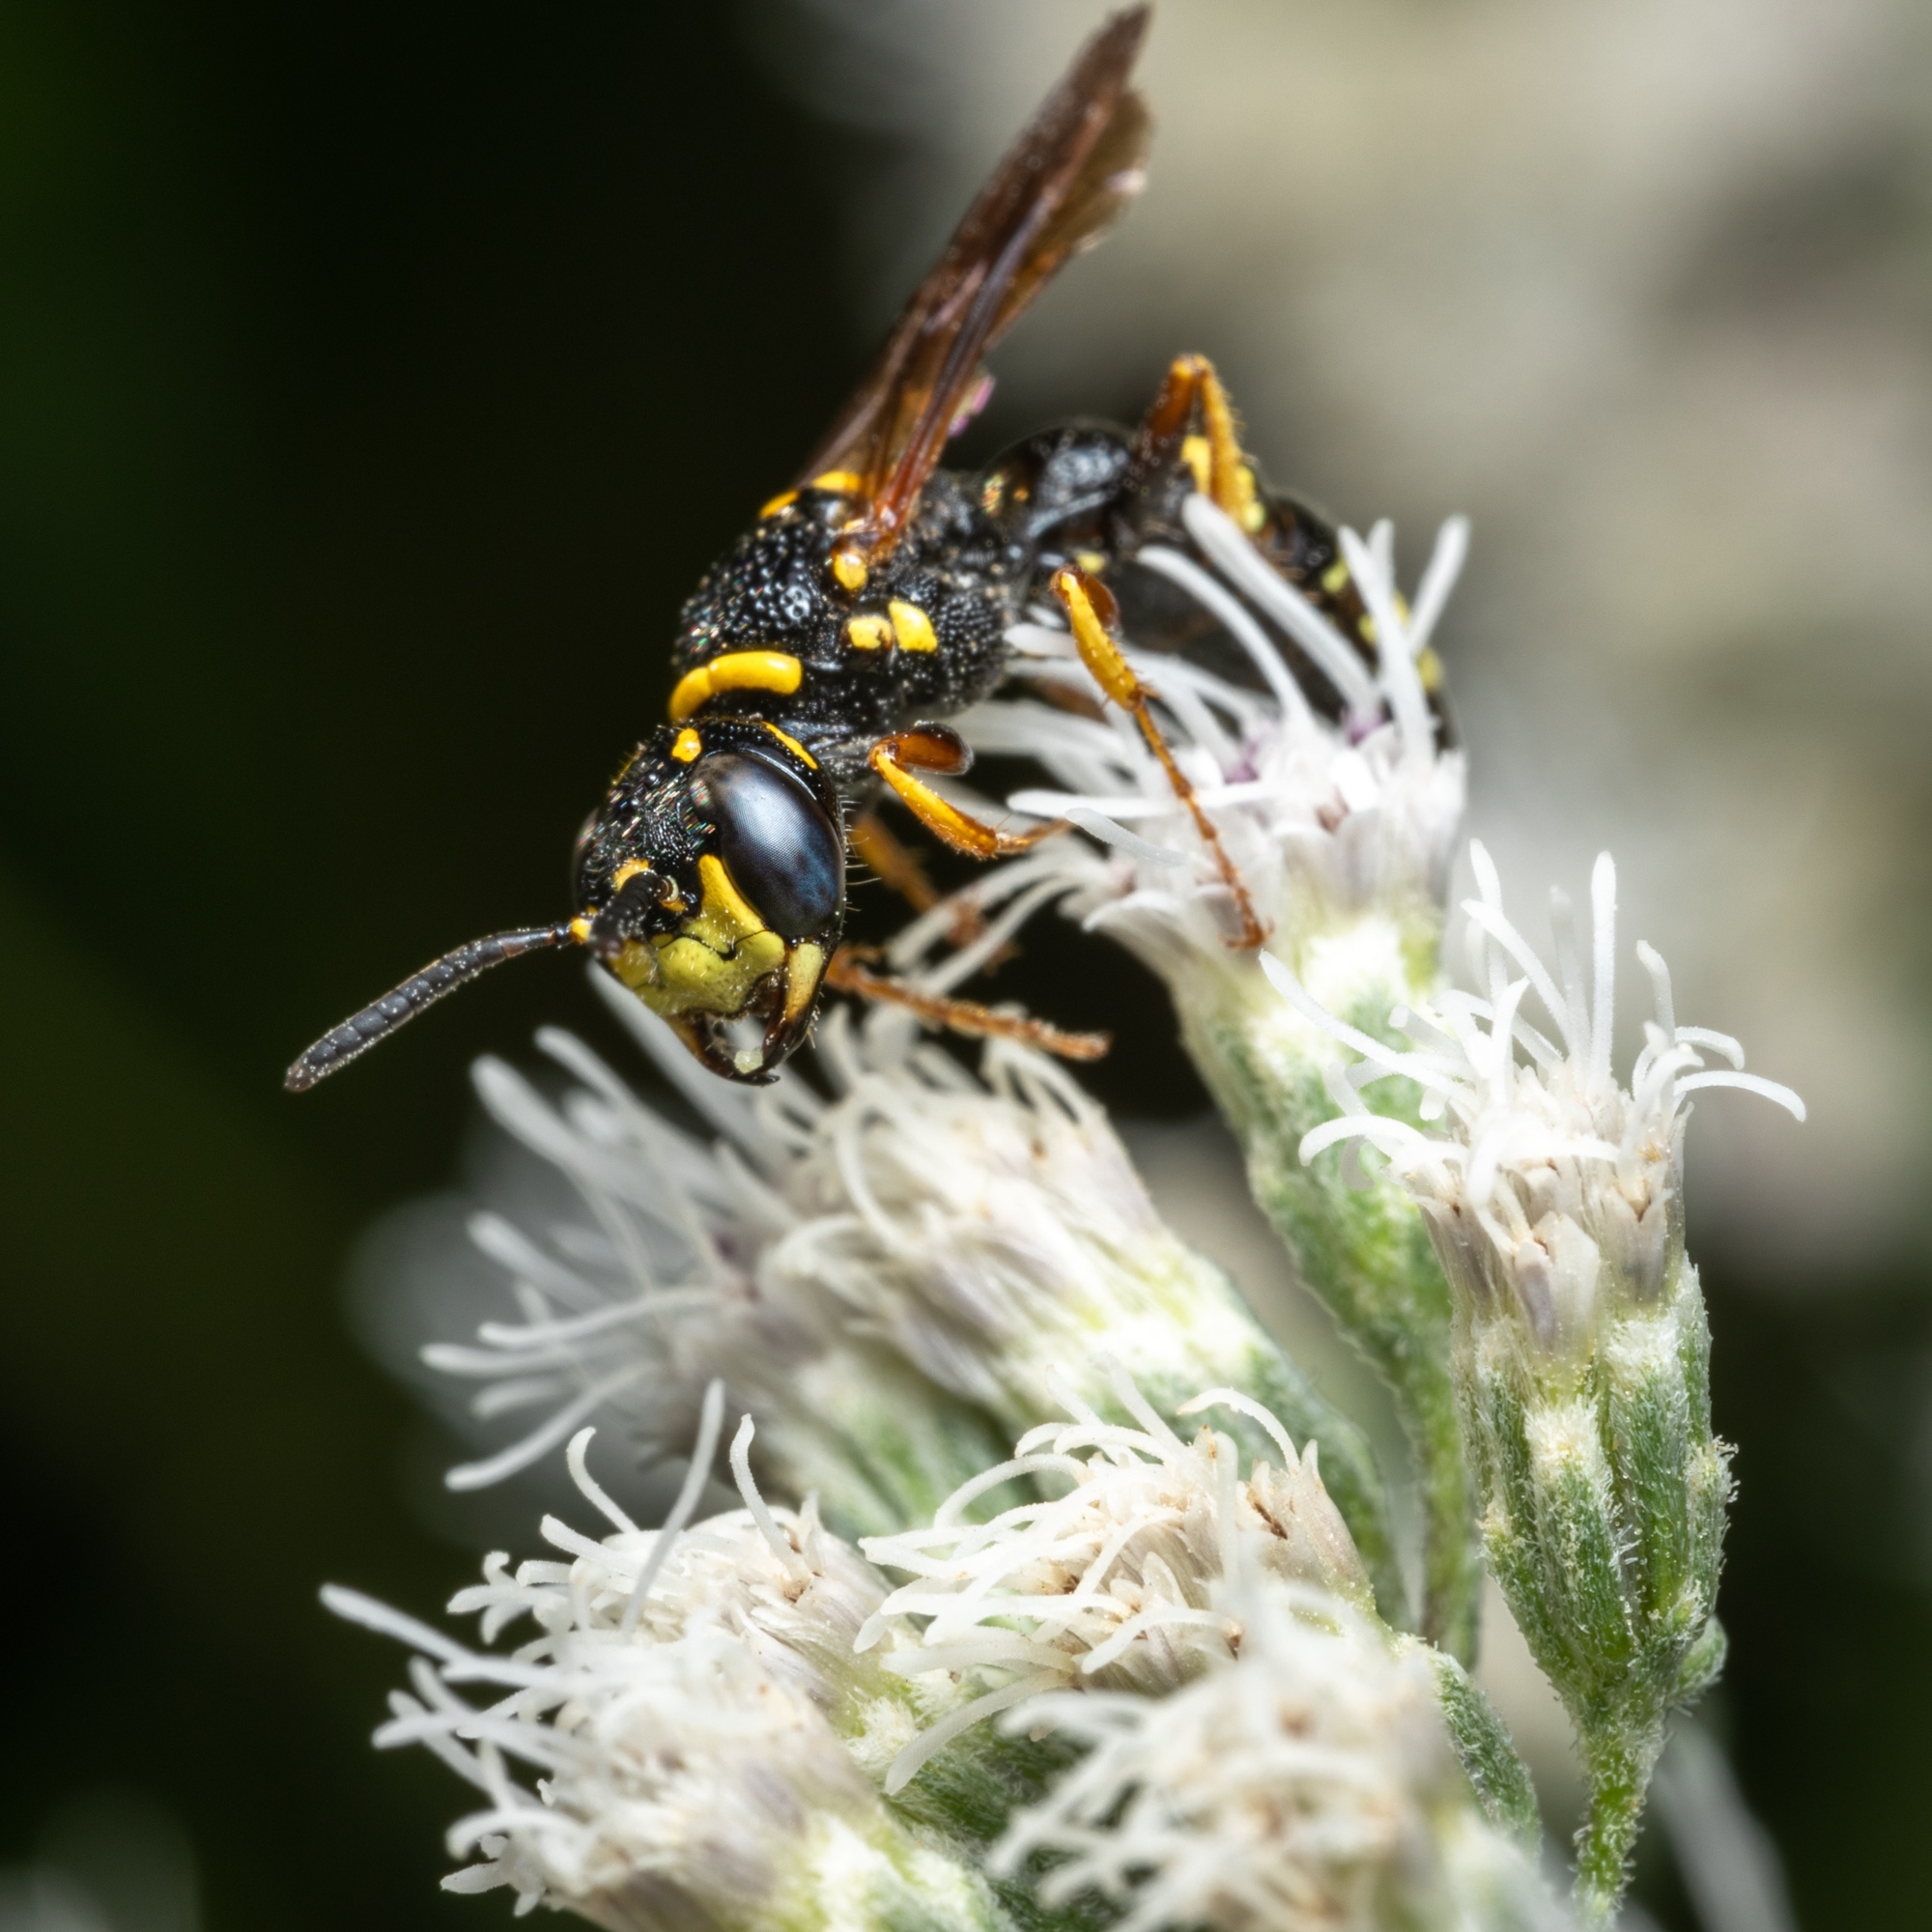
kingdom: Animalia
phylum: Arthropoda
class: Insecta
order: Hymenoptera
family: Crabronidae
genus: Philanthus
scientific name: Philanthus gibbosus
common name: Humped beewolf
